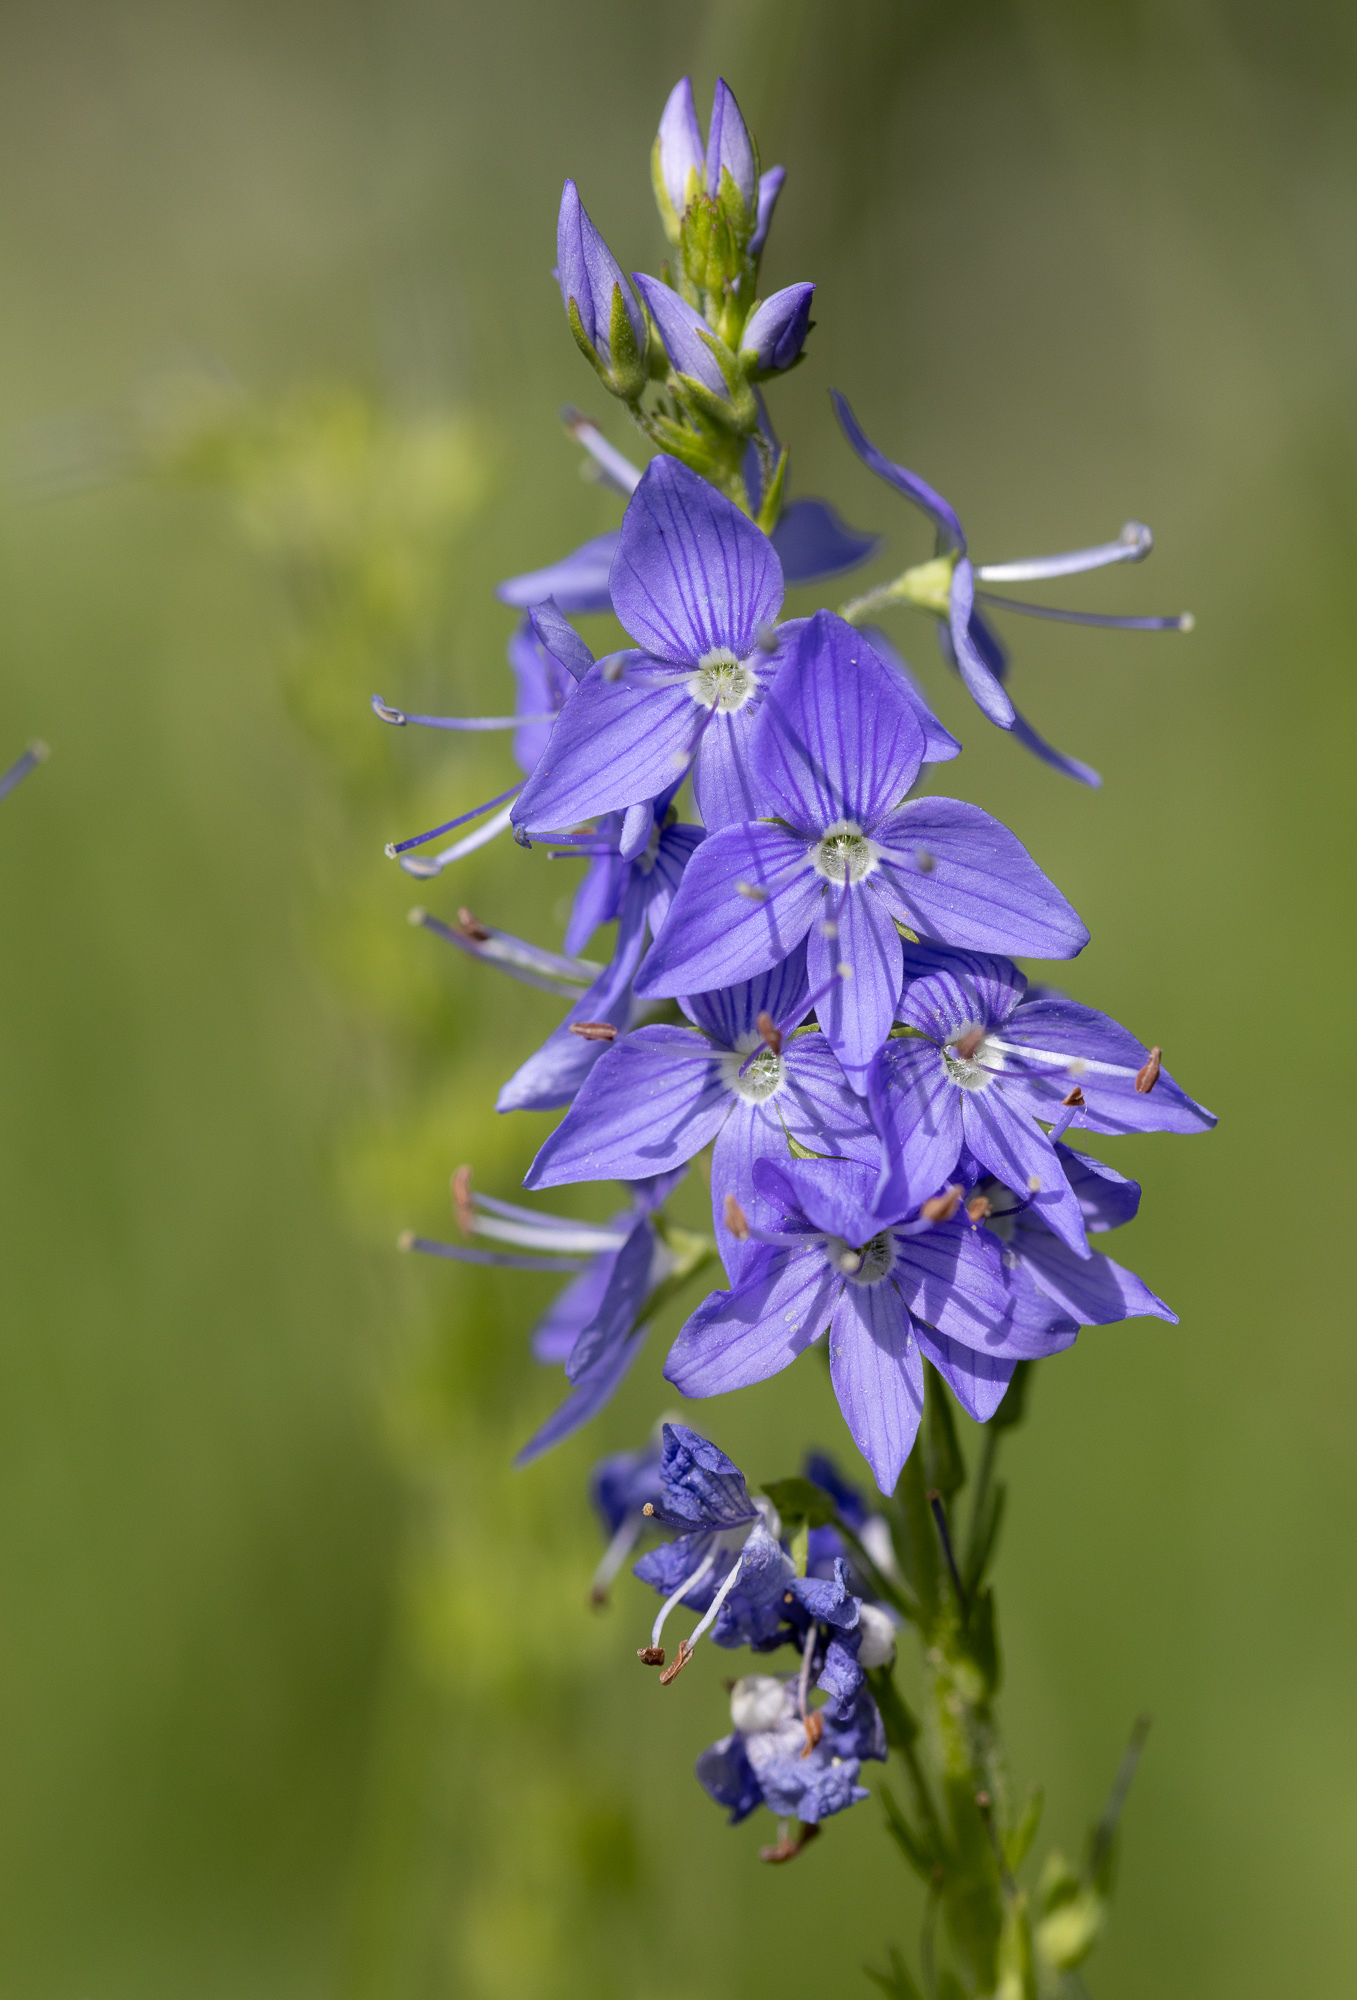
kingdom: Plantae
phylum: Tracheophyta
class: Magnoliopsida
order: Lamiales
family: Plantaginaceae
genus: Veronica
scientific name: Veronica teucrium
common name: Large speedwell
